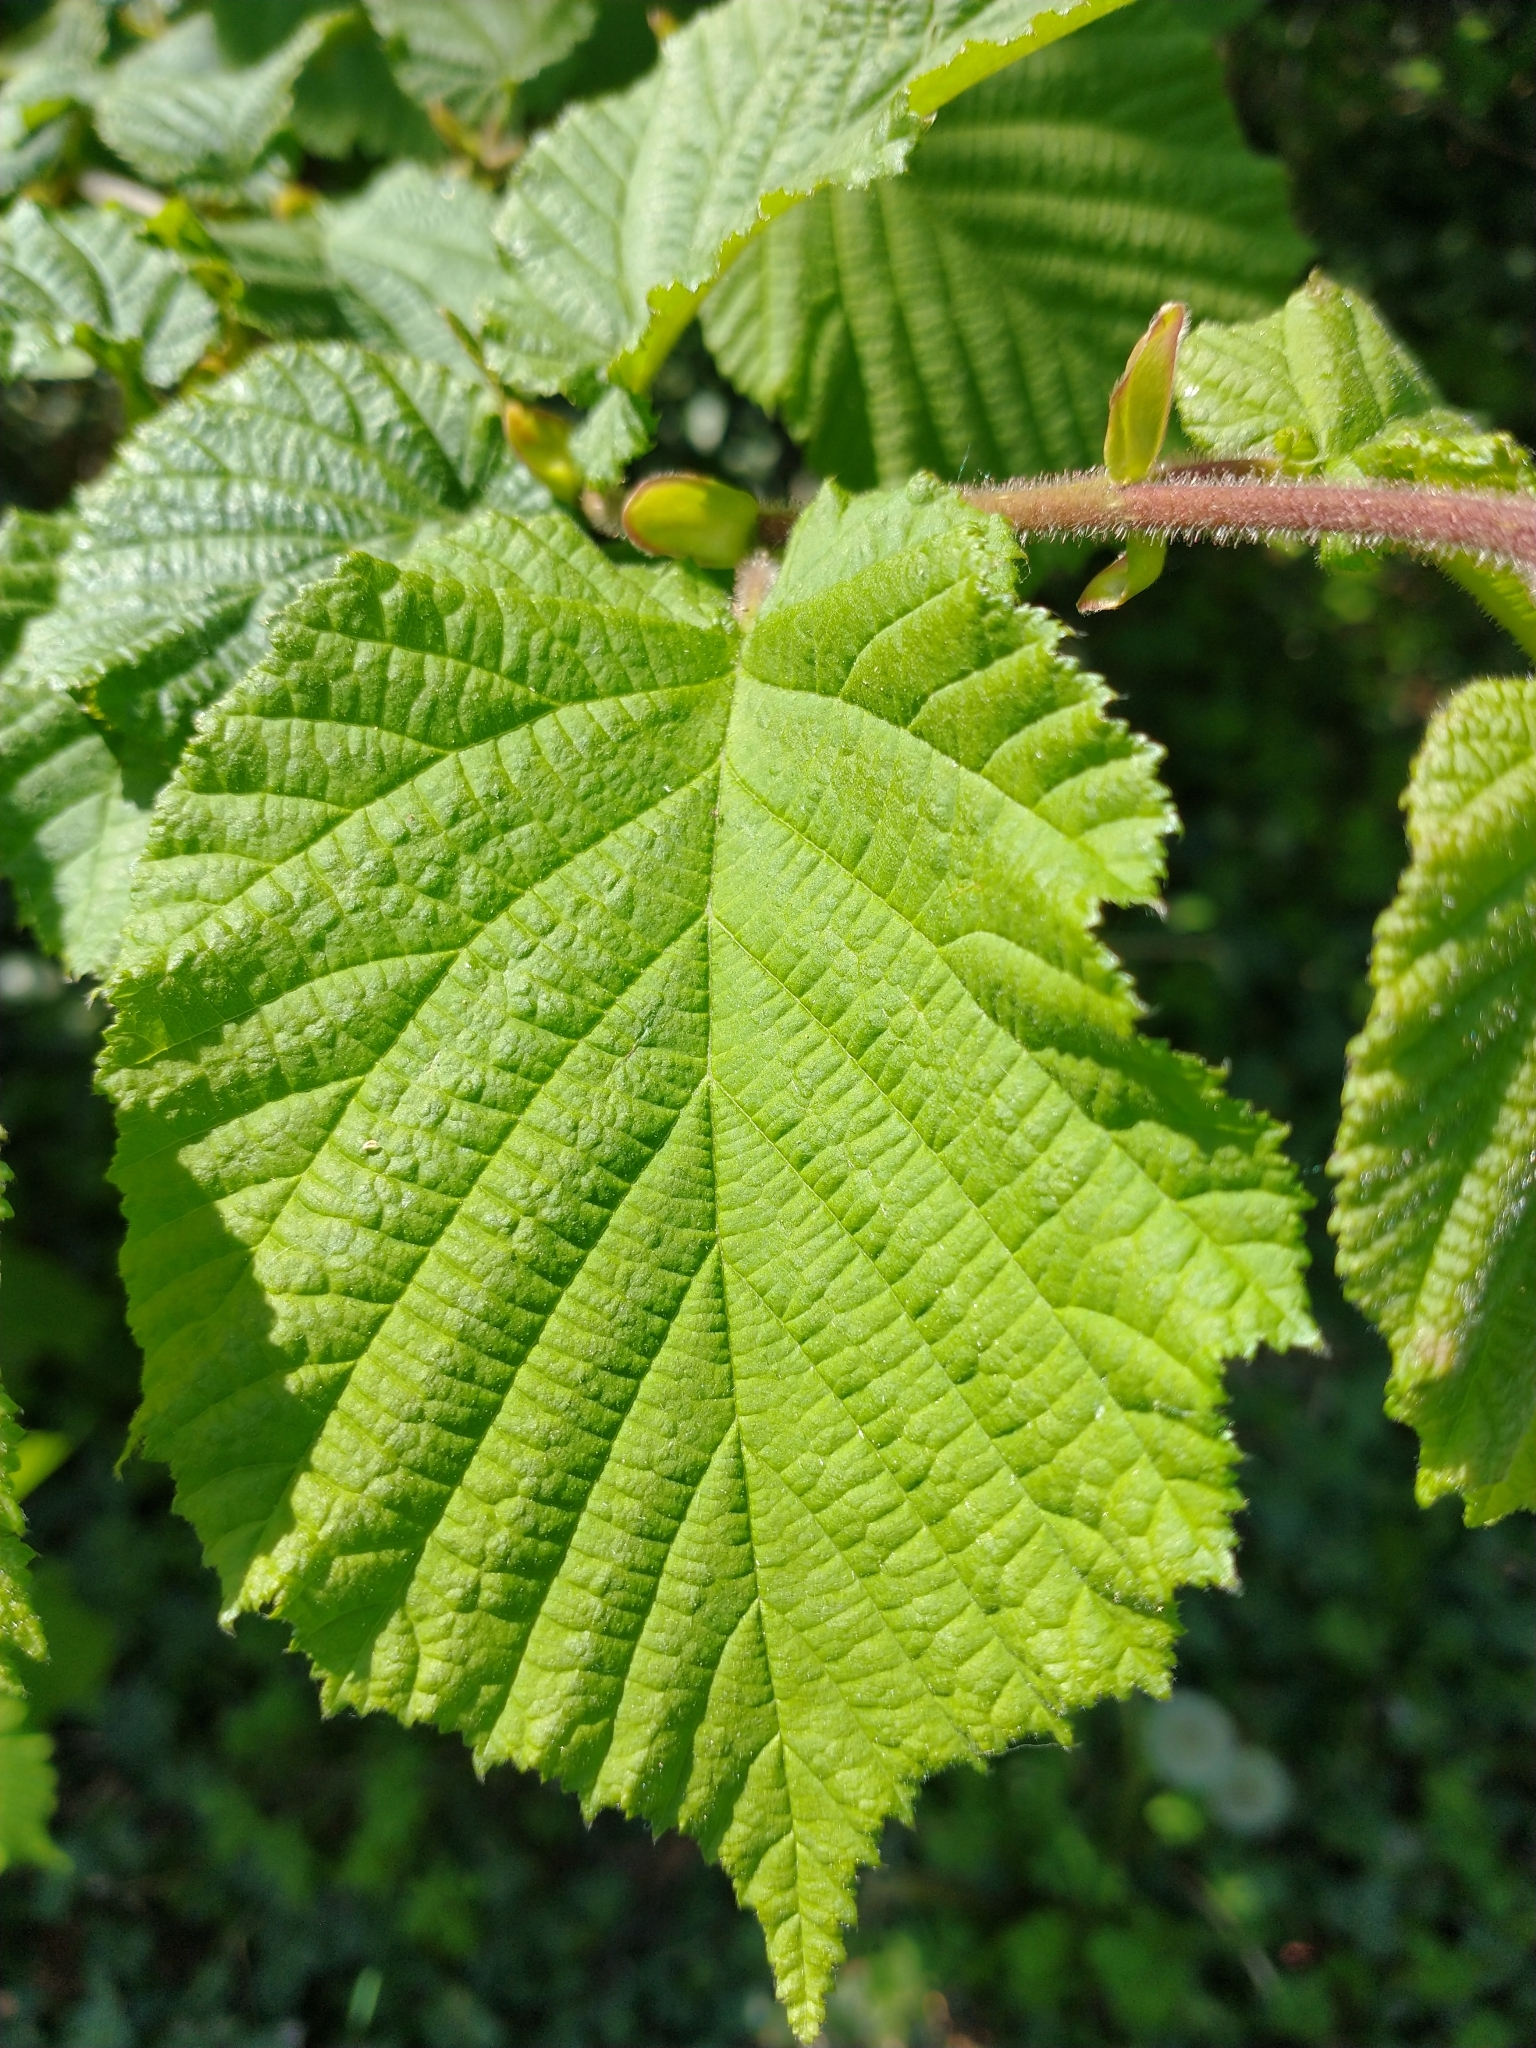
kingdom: Plantae
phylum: Tracheophyta
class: Magnoliopsida
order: Fagales
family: Betulaceae
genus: Corylus
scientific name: Corylus avellana
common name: European hazel
